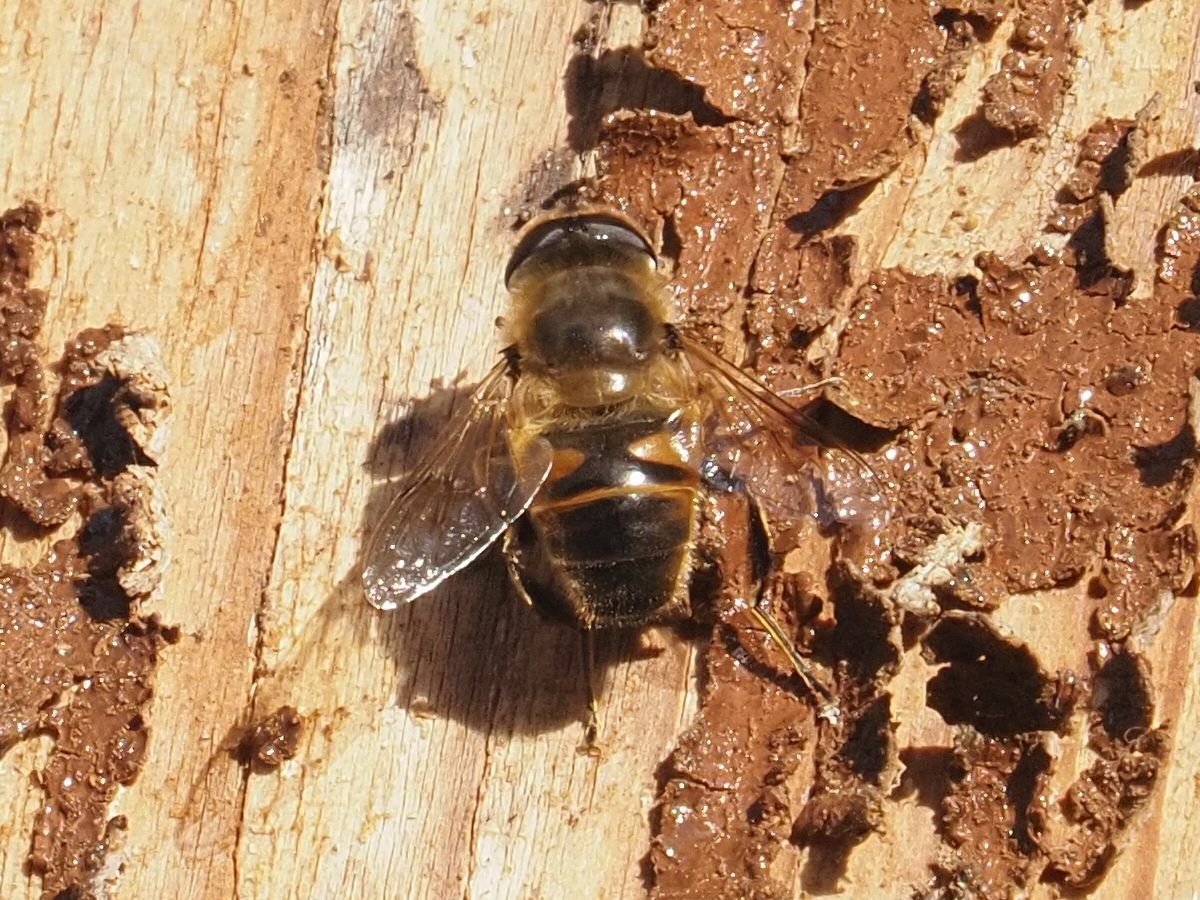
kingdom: Animalia
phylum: Arthropoda
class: Insecta
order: Diptera
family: Syrphidae
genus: Eristalis
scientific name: Eristalis tenax
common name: Drone fly
